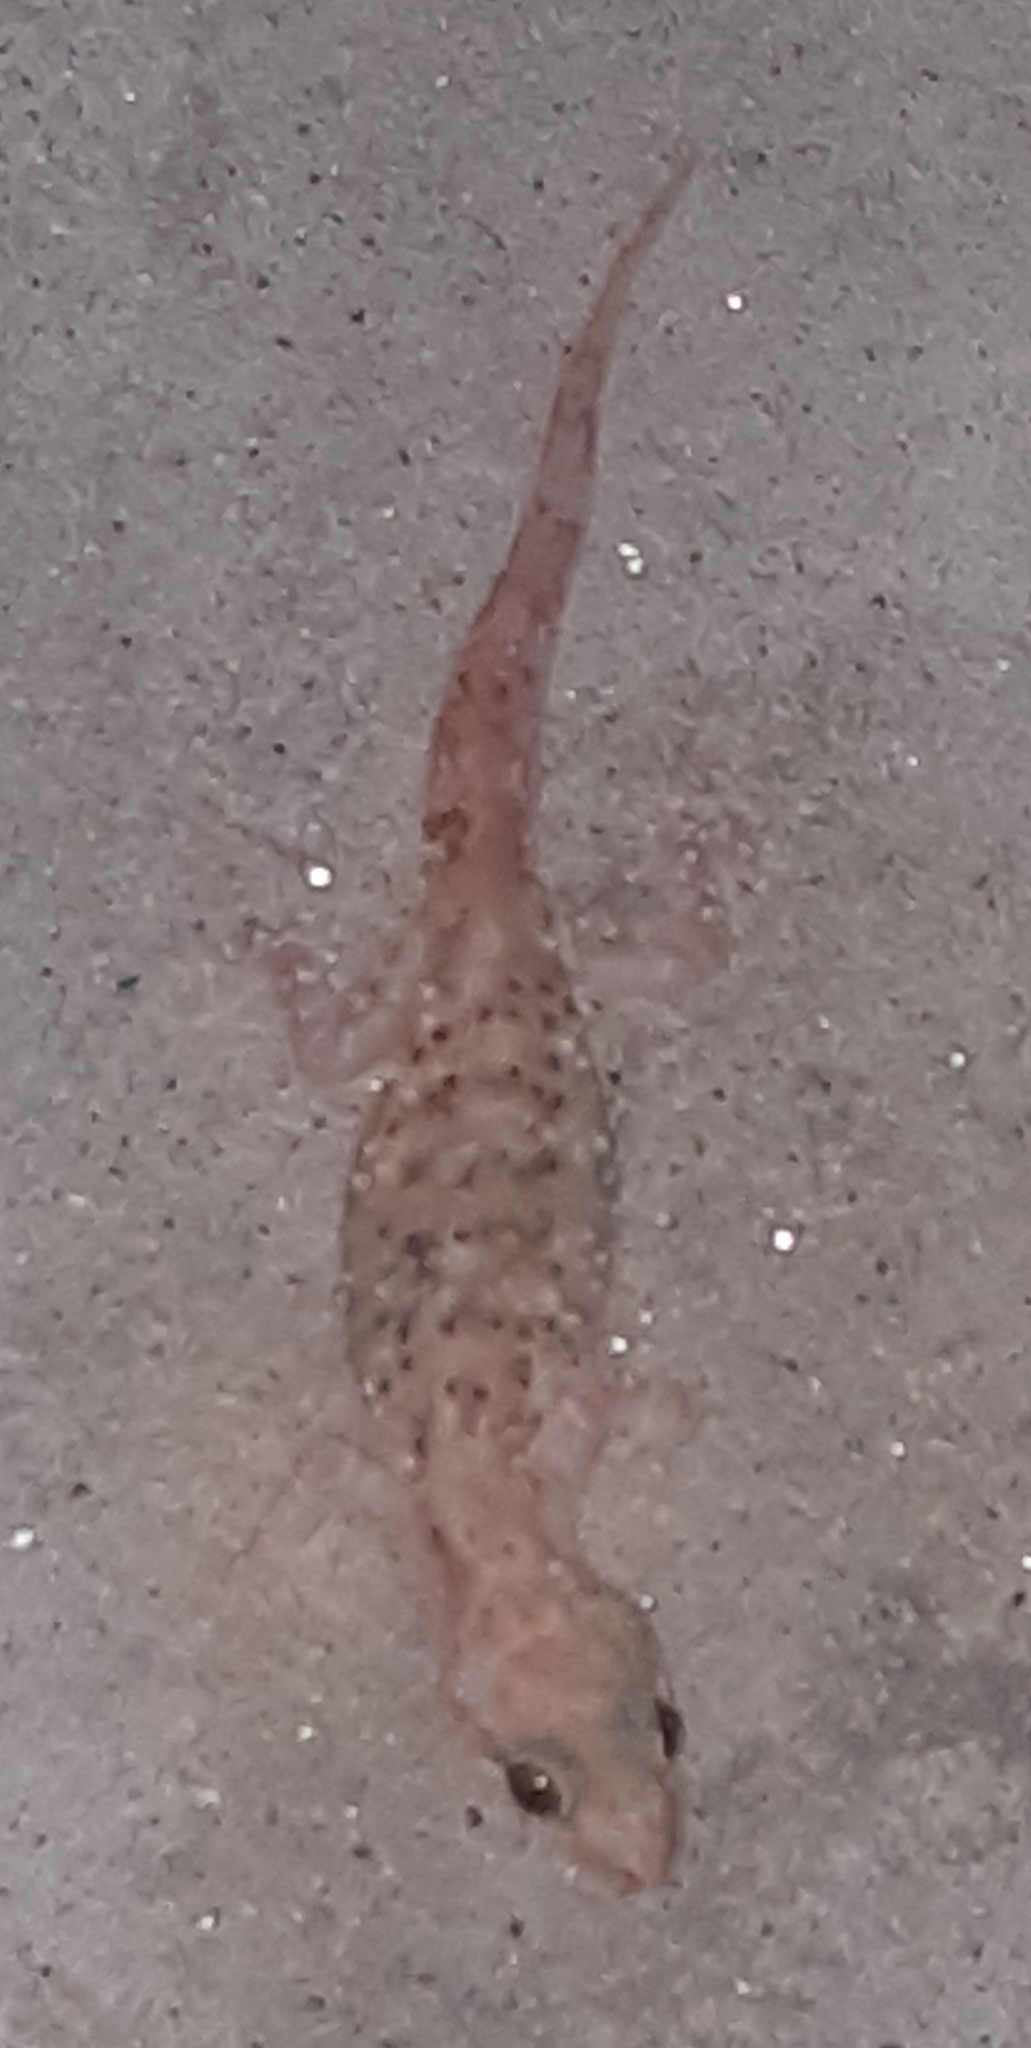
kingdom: Animalia
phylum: Chordata
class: Squamata
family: Gekkonidae
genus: Hemidactylus
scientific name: Hemidactylus turcicus
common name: Turkish gecko
